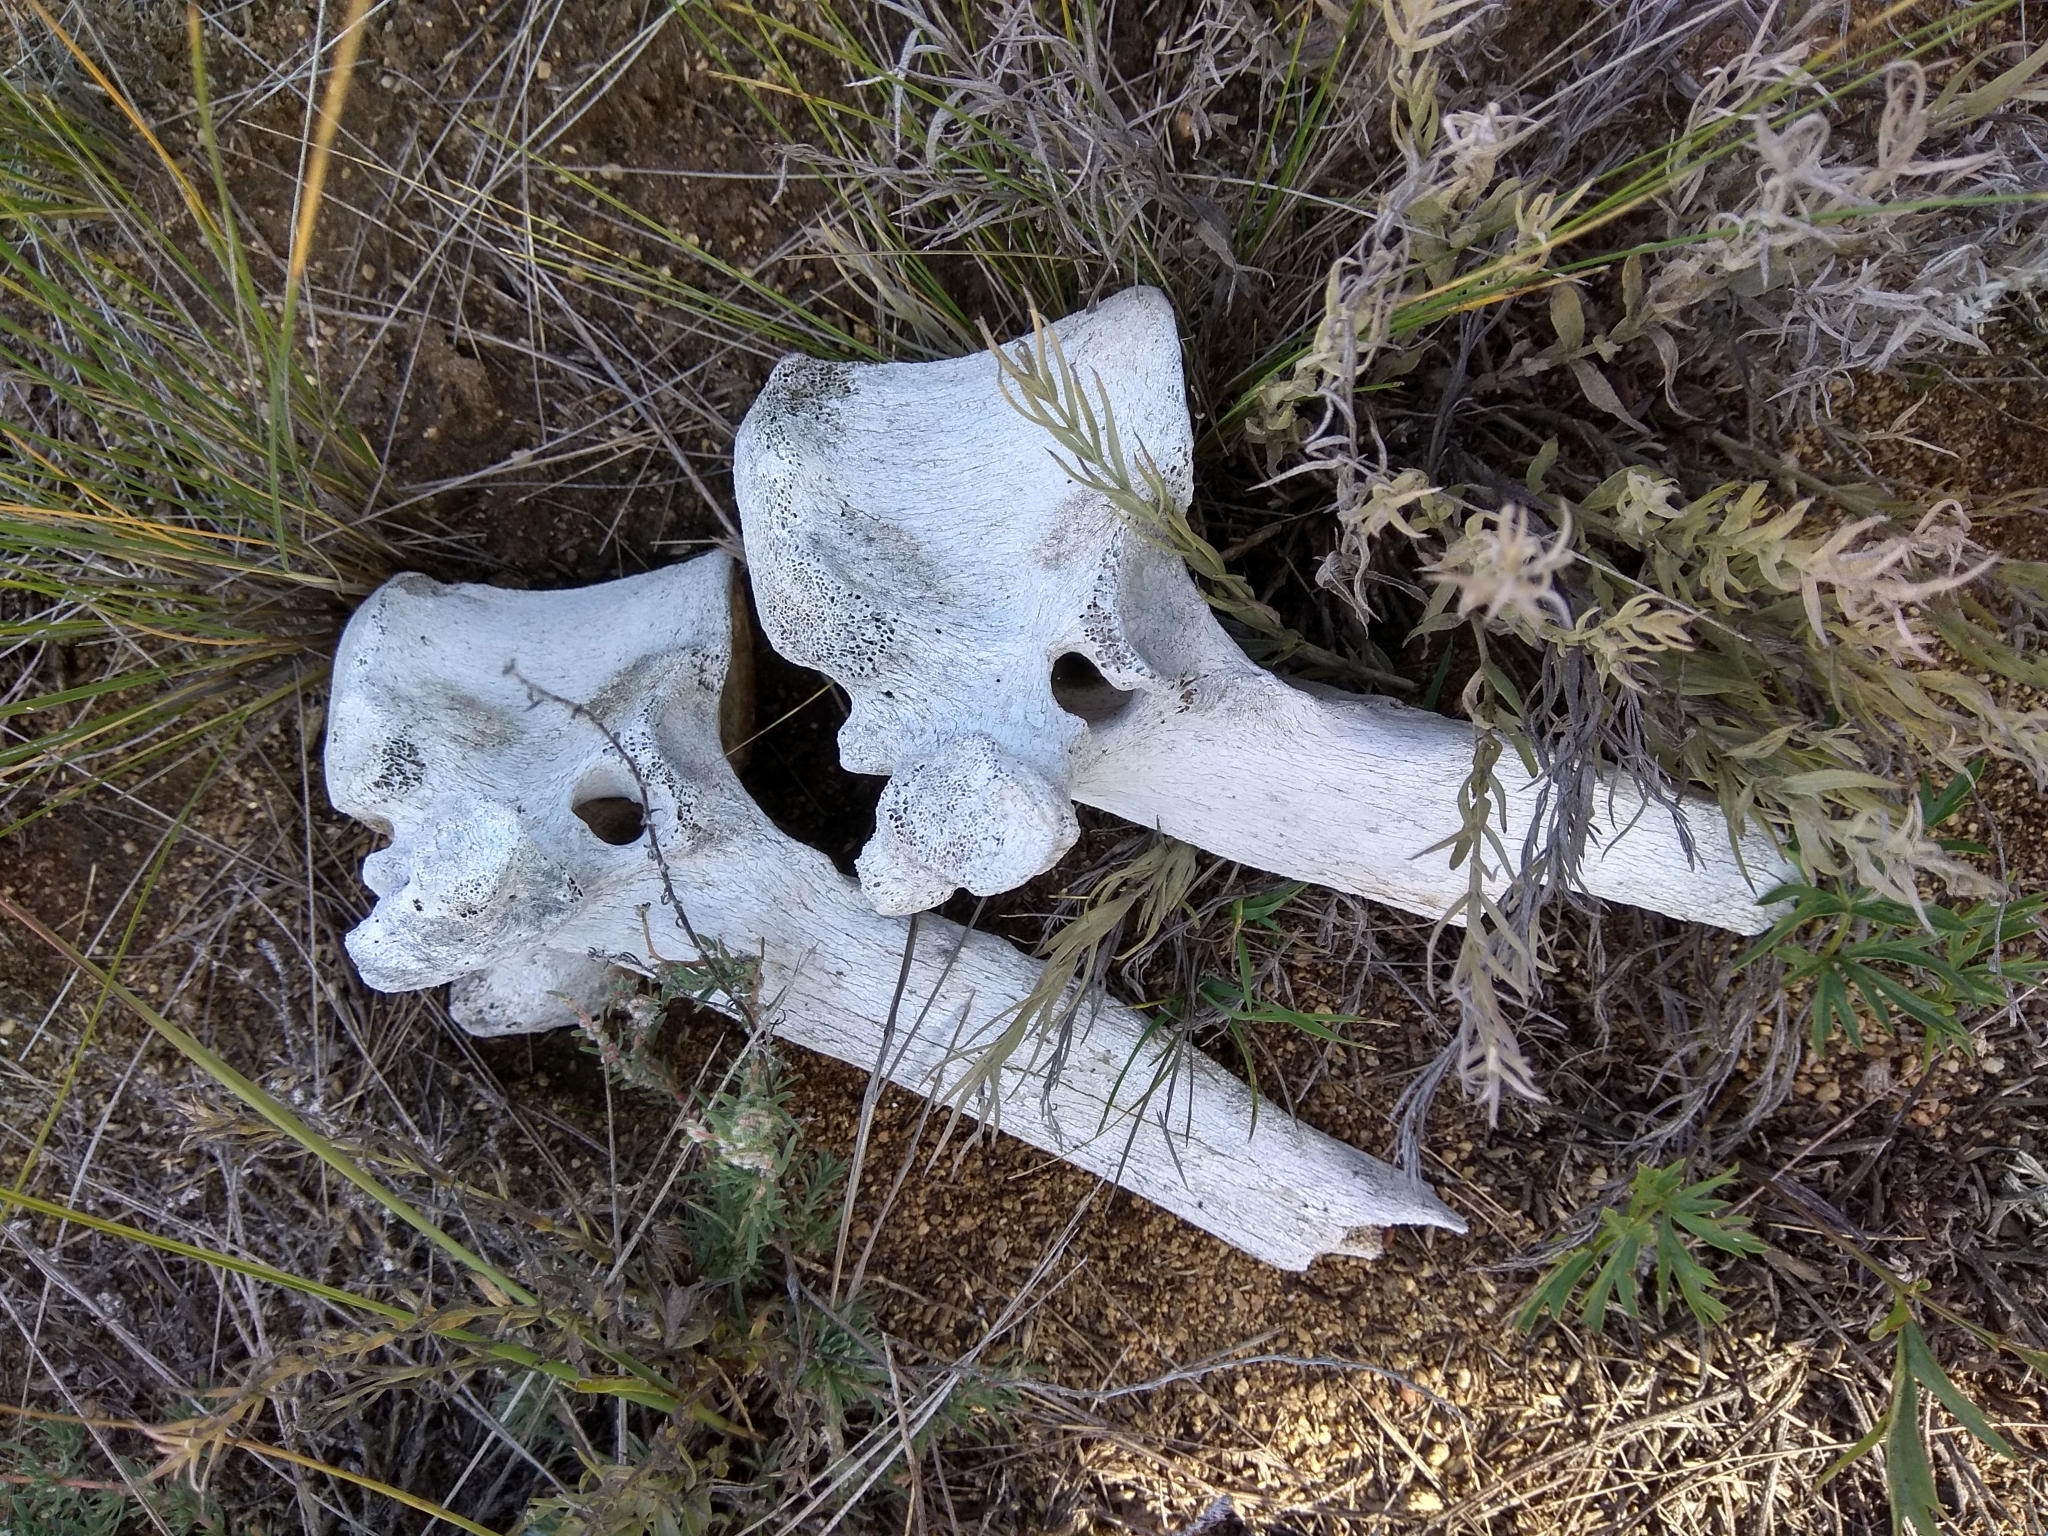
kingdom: Animalia
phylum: Chordata
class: Mammalia
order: Artiodactyla
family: Bovidae
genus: Bos
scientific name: Bos taurus
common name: Domesticated cattle
